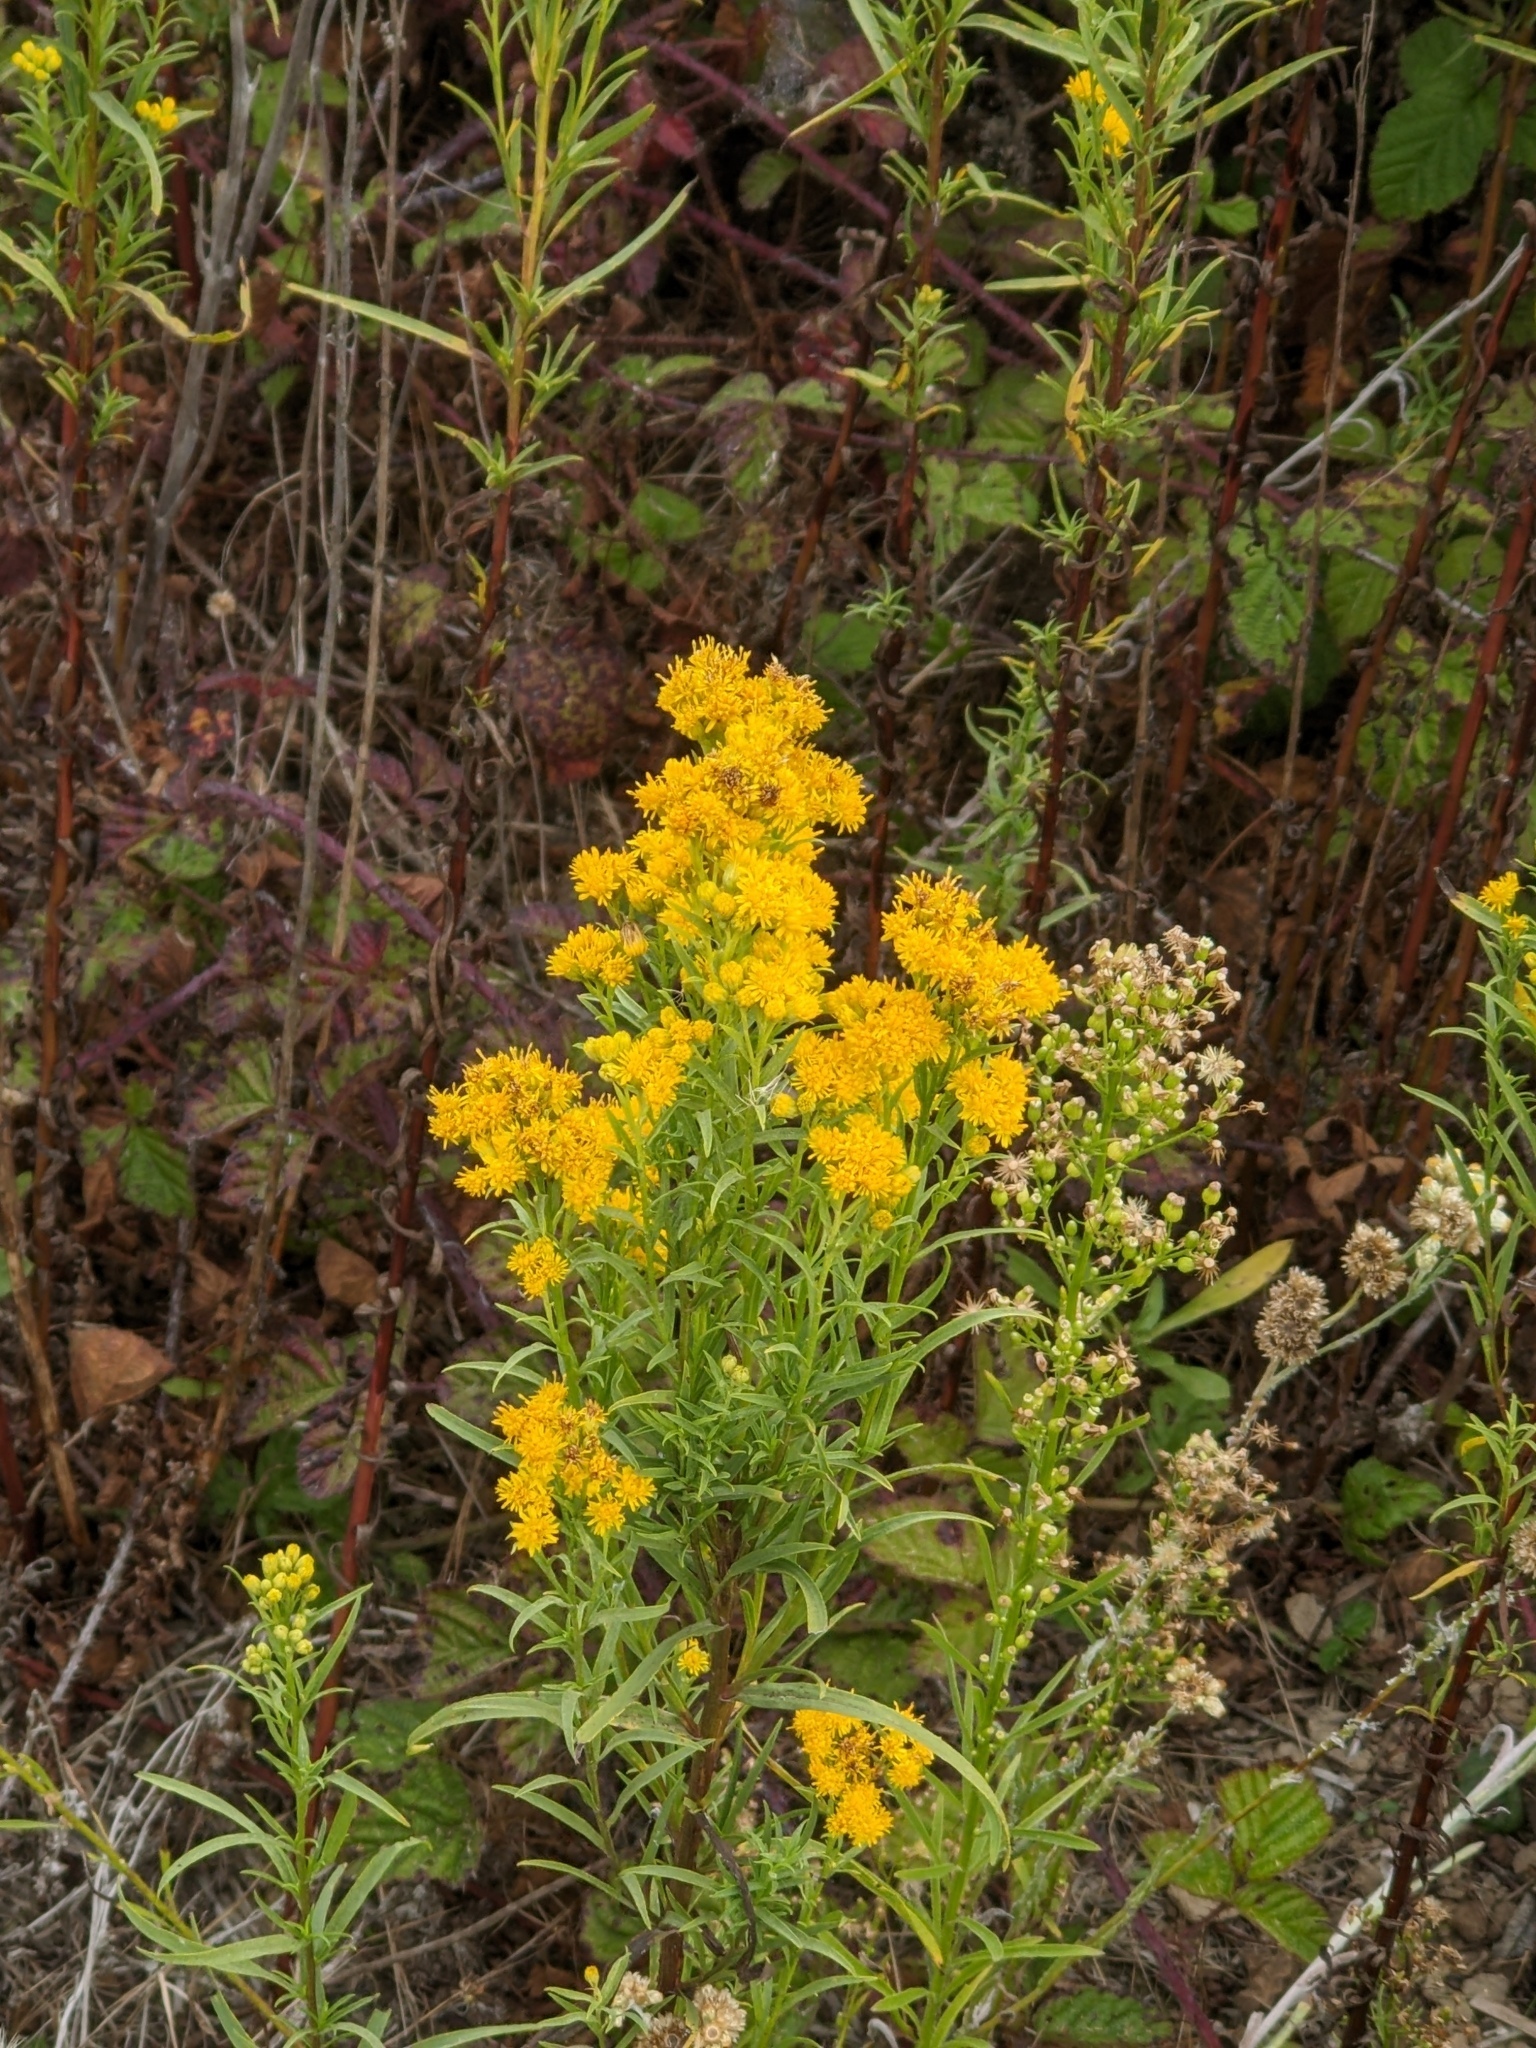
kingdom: Plantae
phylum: Tracheophyta
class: Magnoliopsida
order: Asterales
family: Asteraceae
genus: Euthamia
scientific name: Euthamia occidentalis
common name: Western goldentop
